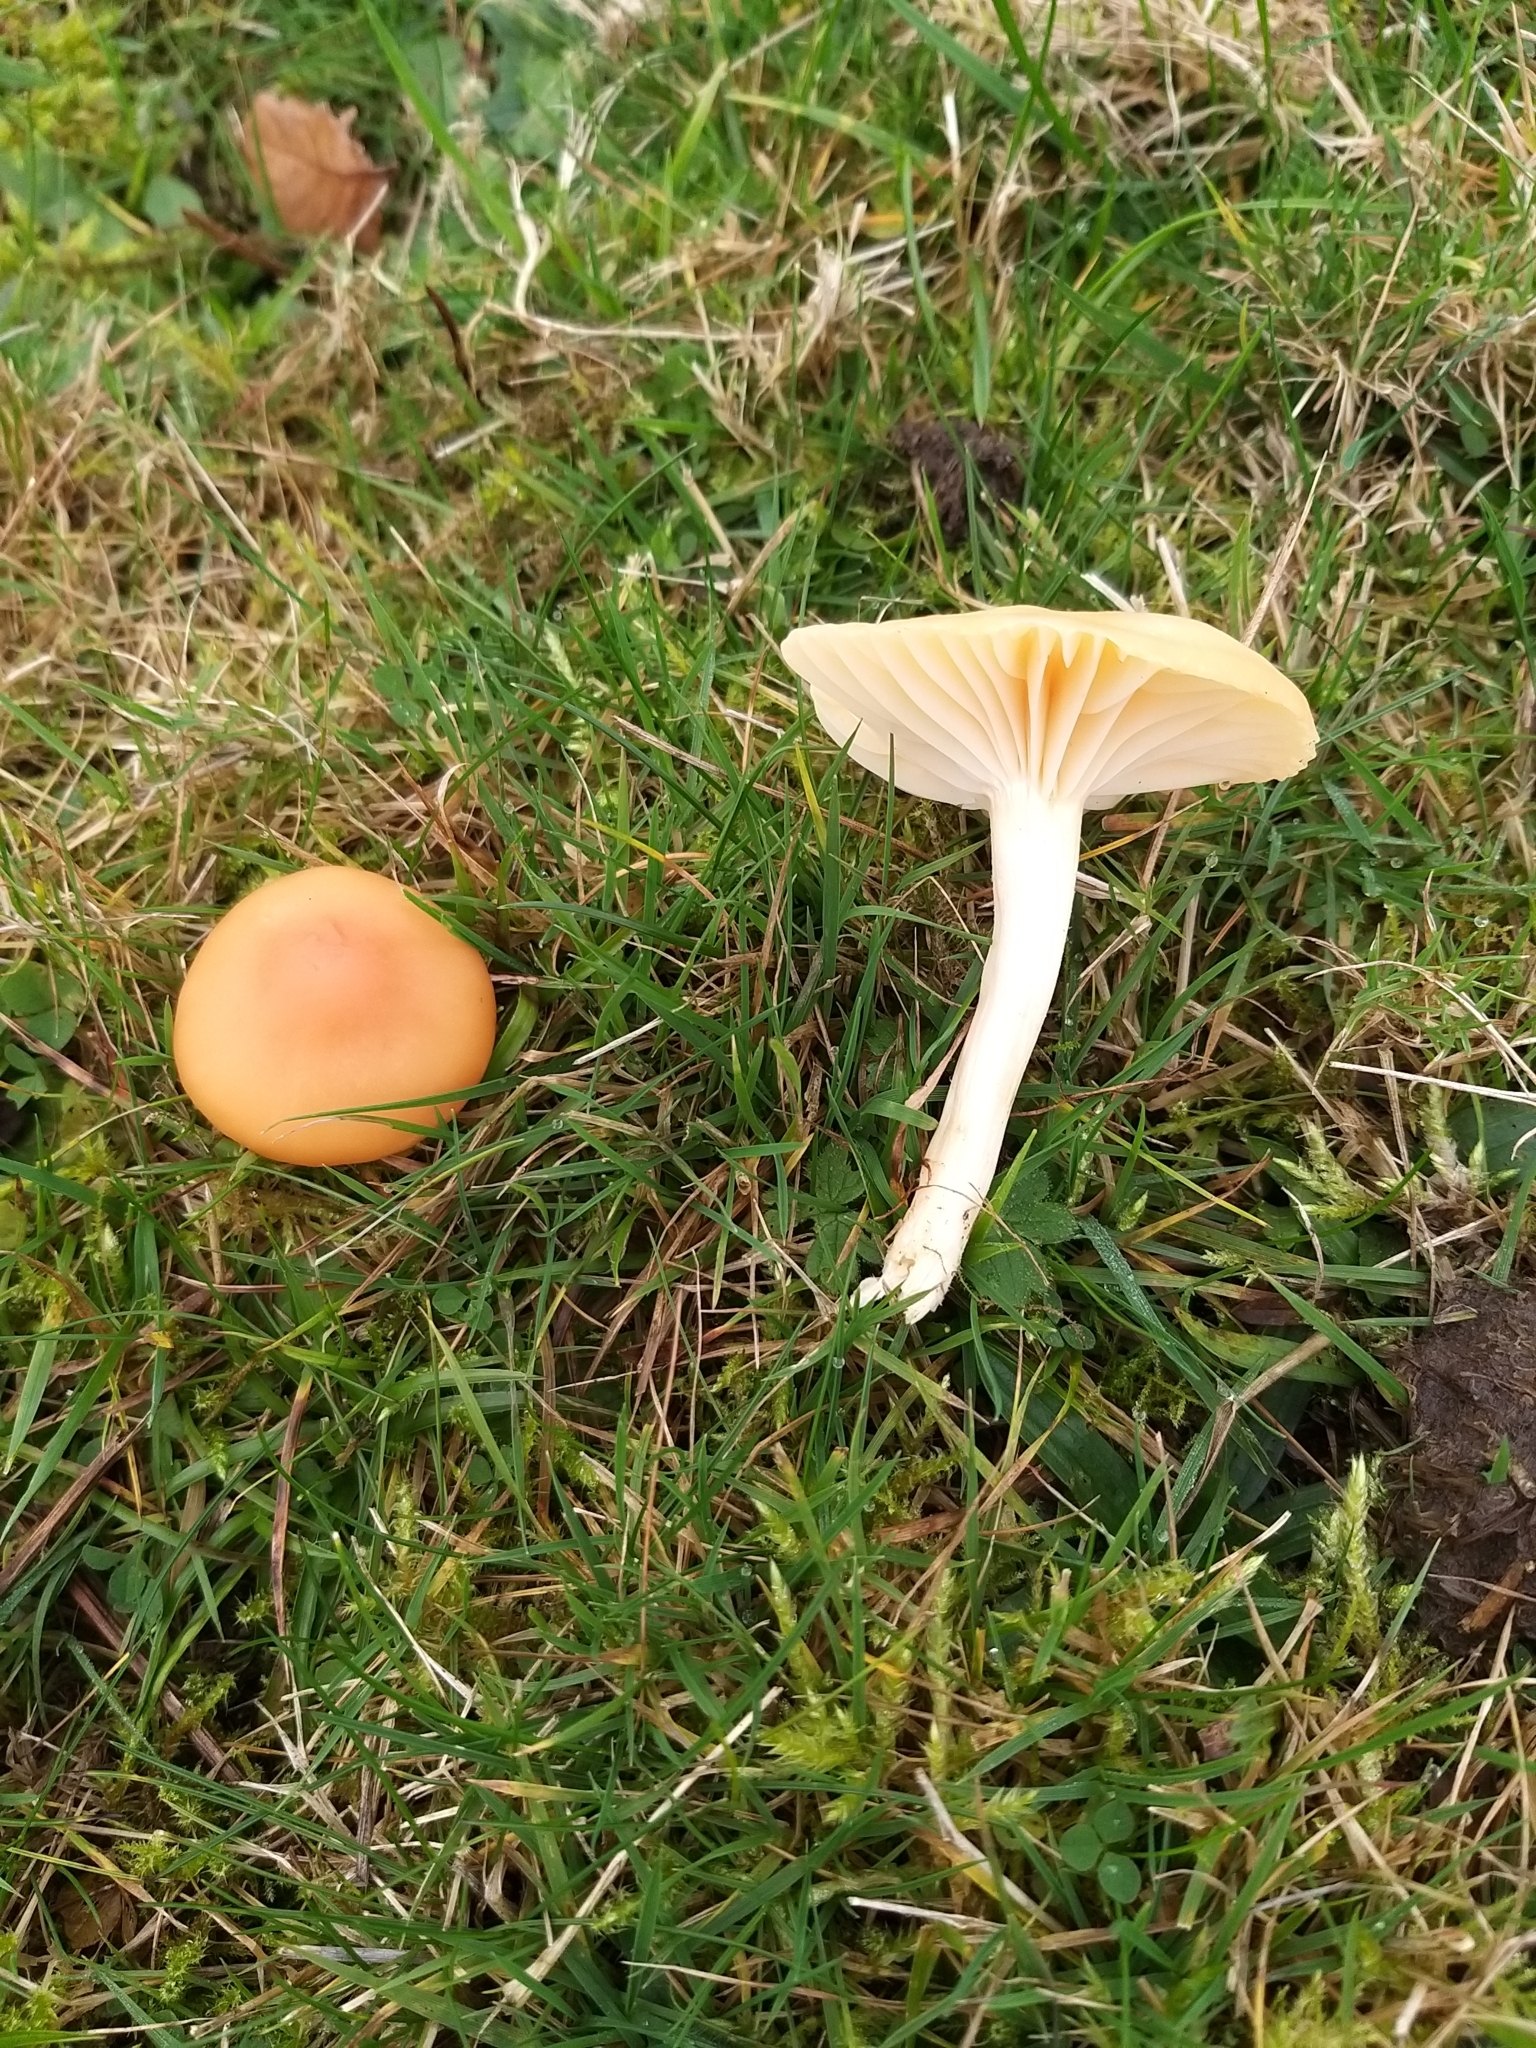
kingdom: Fungi
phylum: Basidiomycota
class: Agaricomycetes
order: Agaricales
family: Hygrophoraceae
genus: Cuphophyllus
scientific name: Cuphophyllus pratensis
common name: Meadow waxcap
